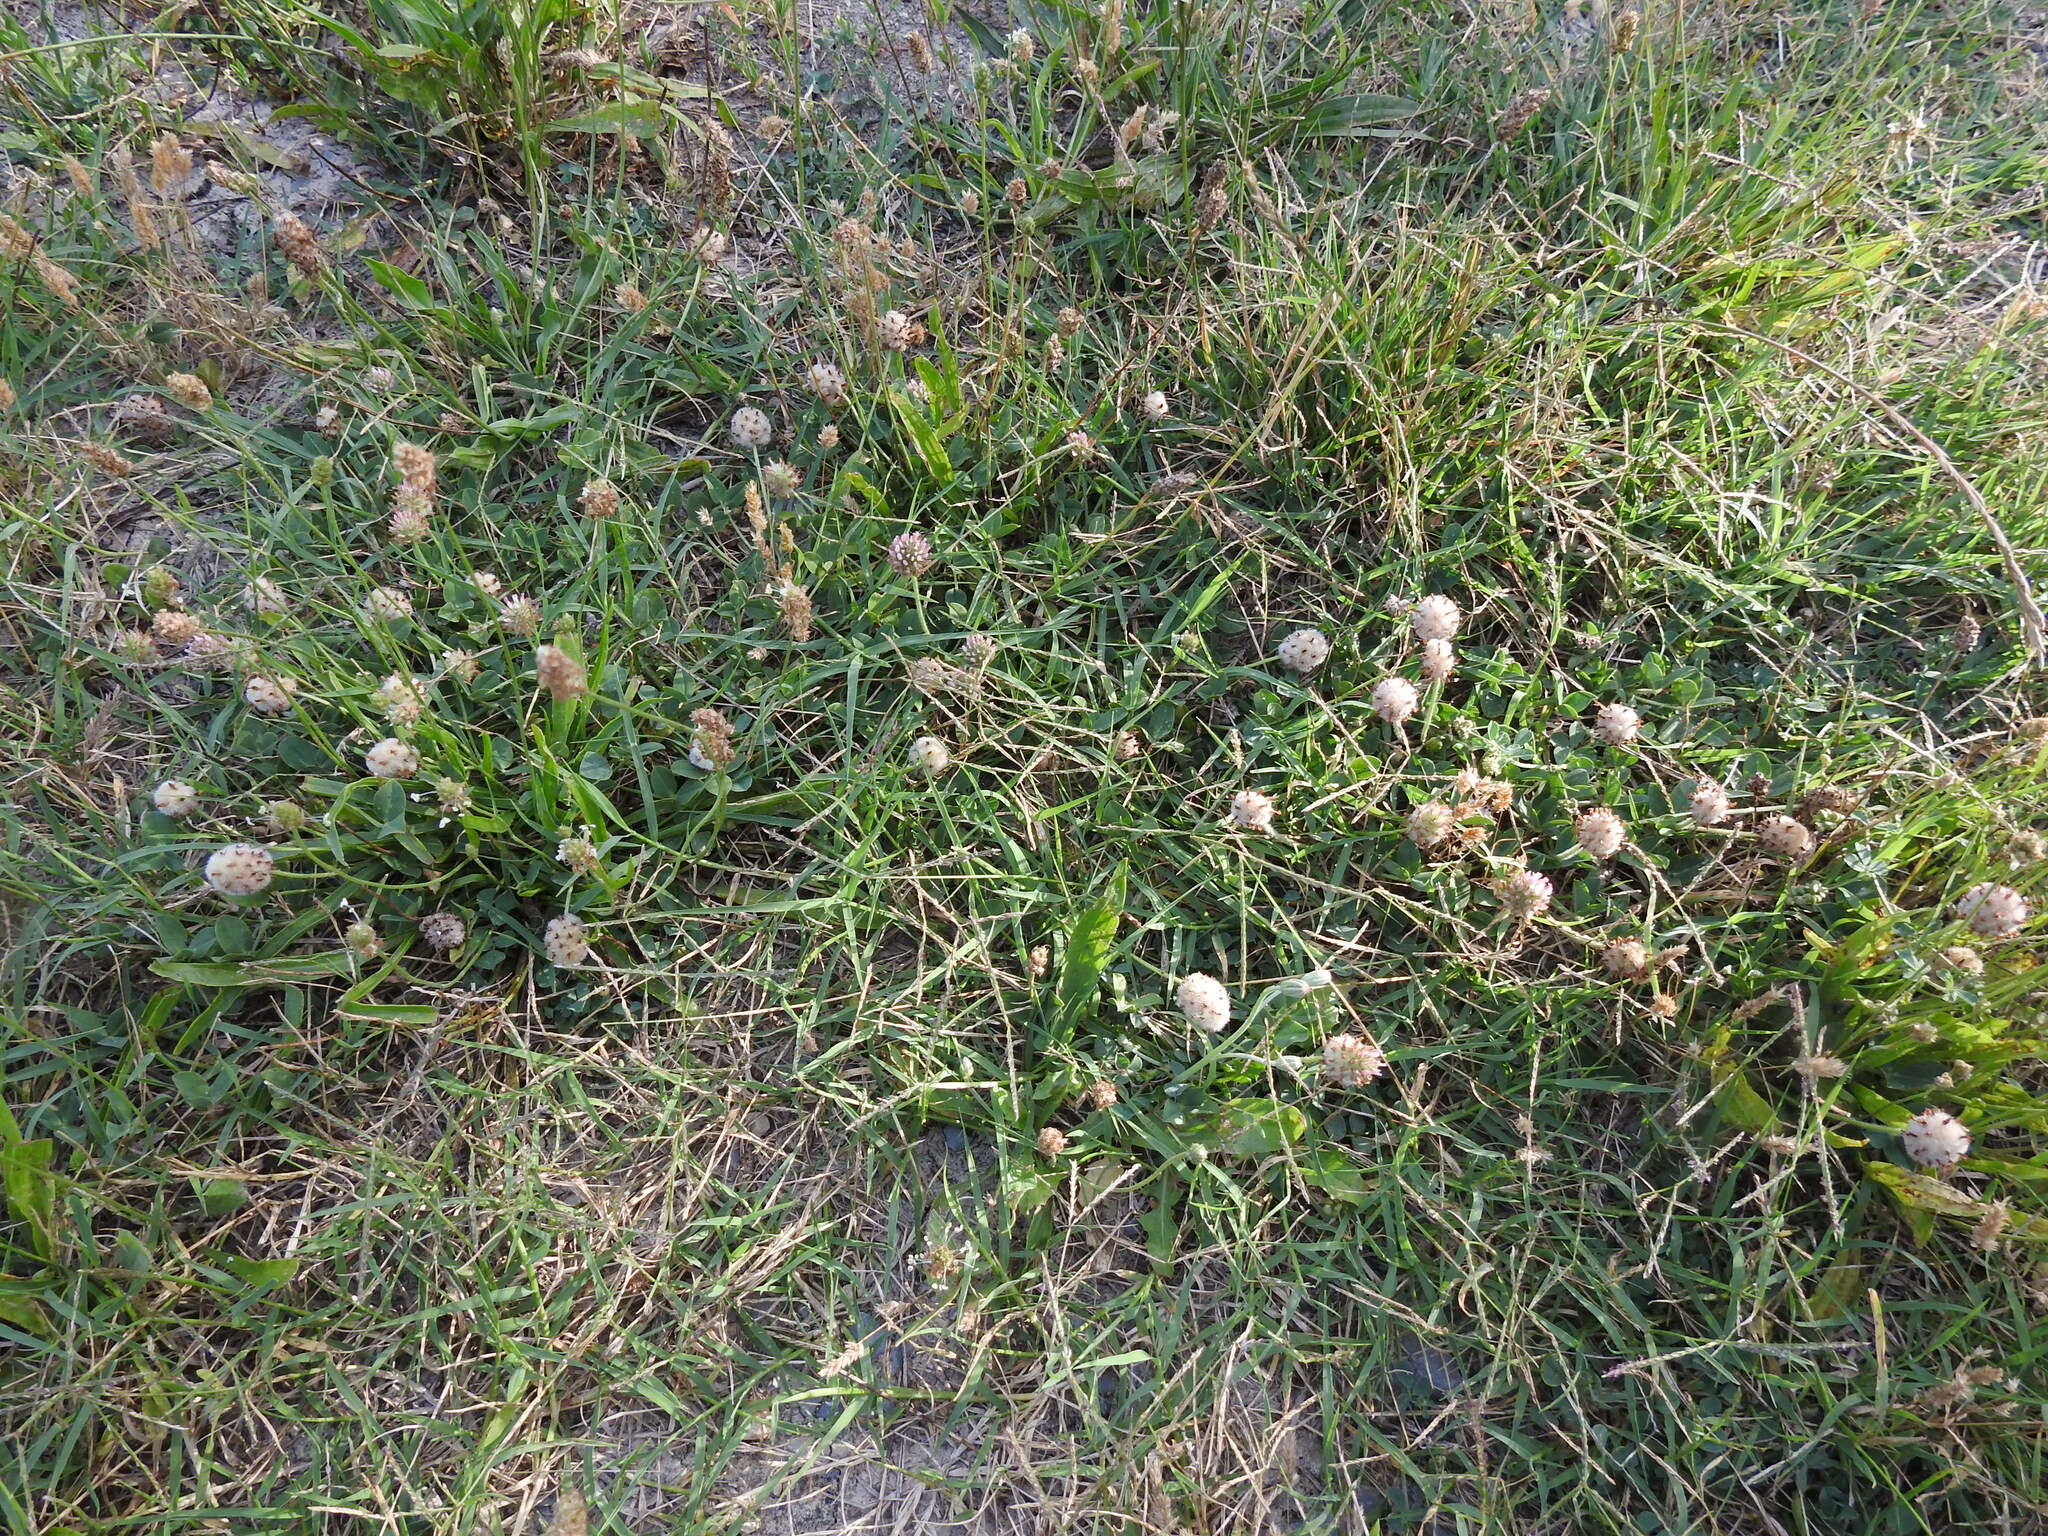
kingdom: Plantae
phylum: Tracheophyta
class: Magnoliopsida
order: Fabales
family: Fabaceae
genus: Trifolium
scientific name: Trifolium fragiferum
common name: Strawberry clover
